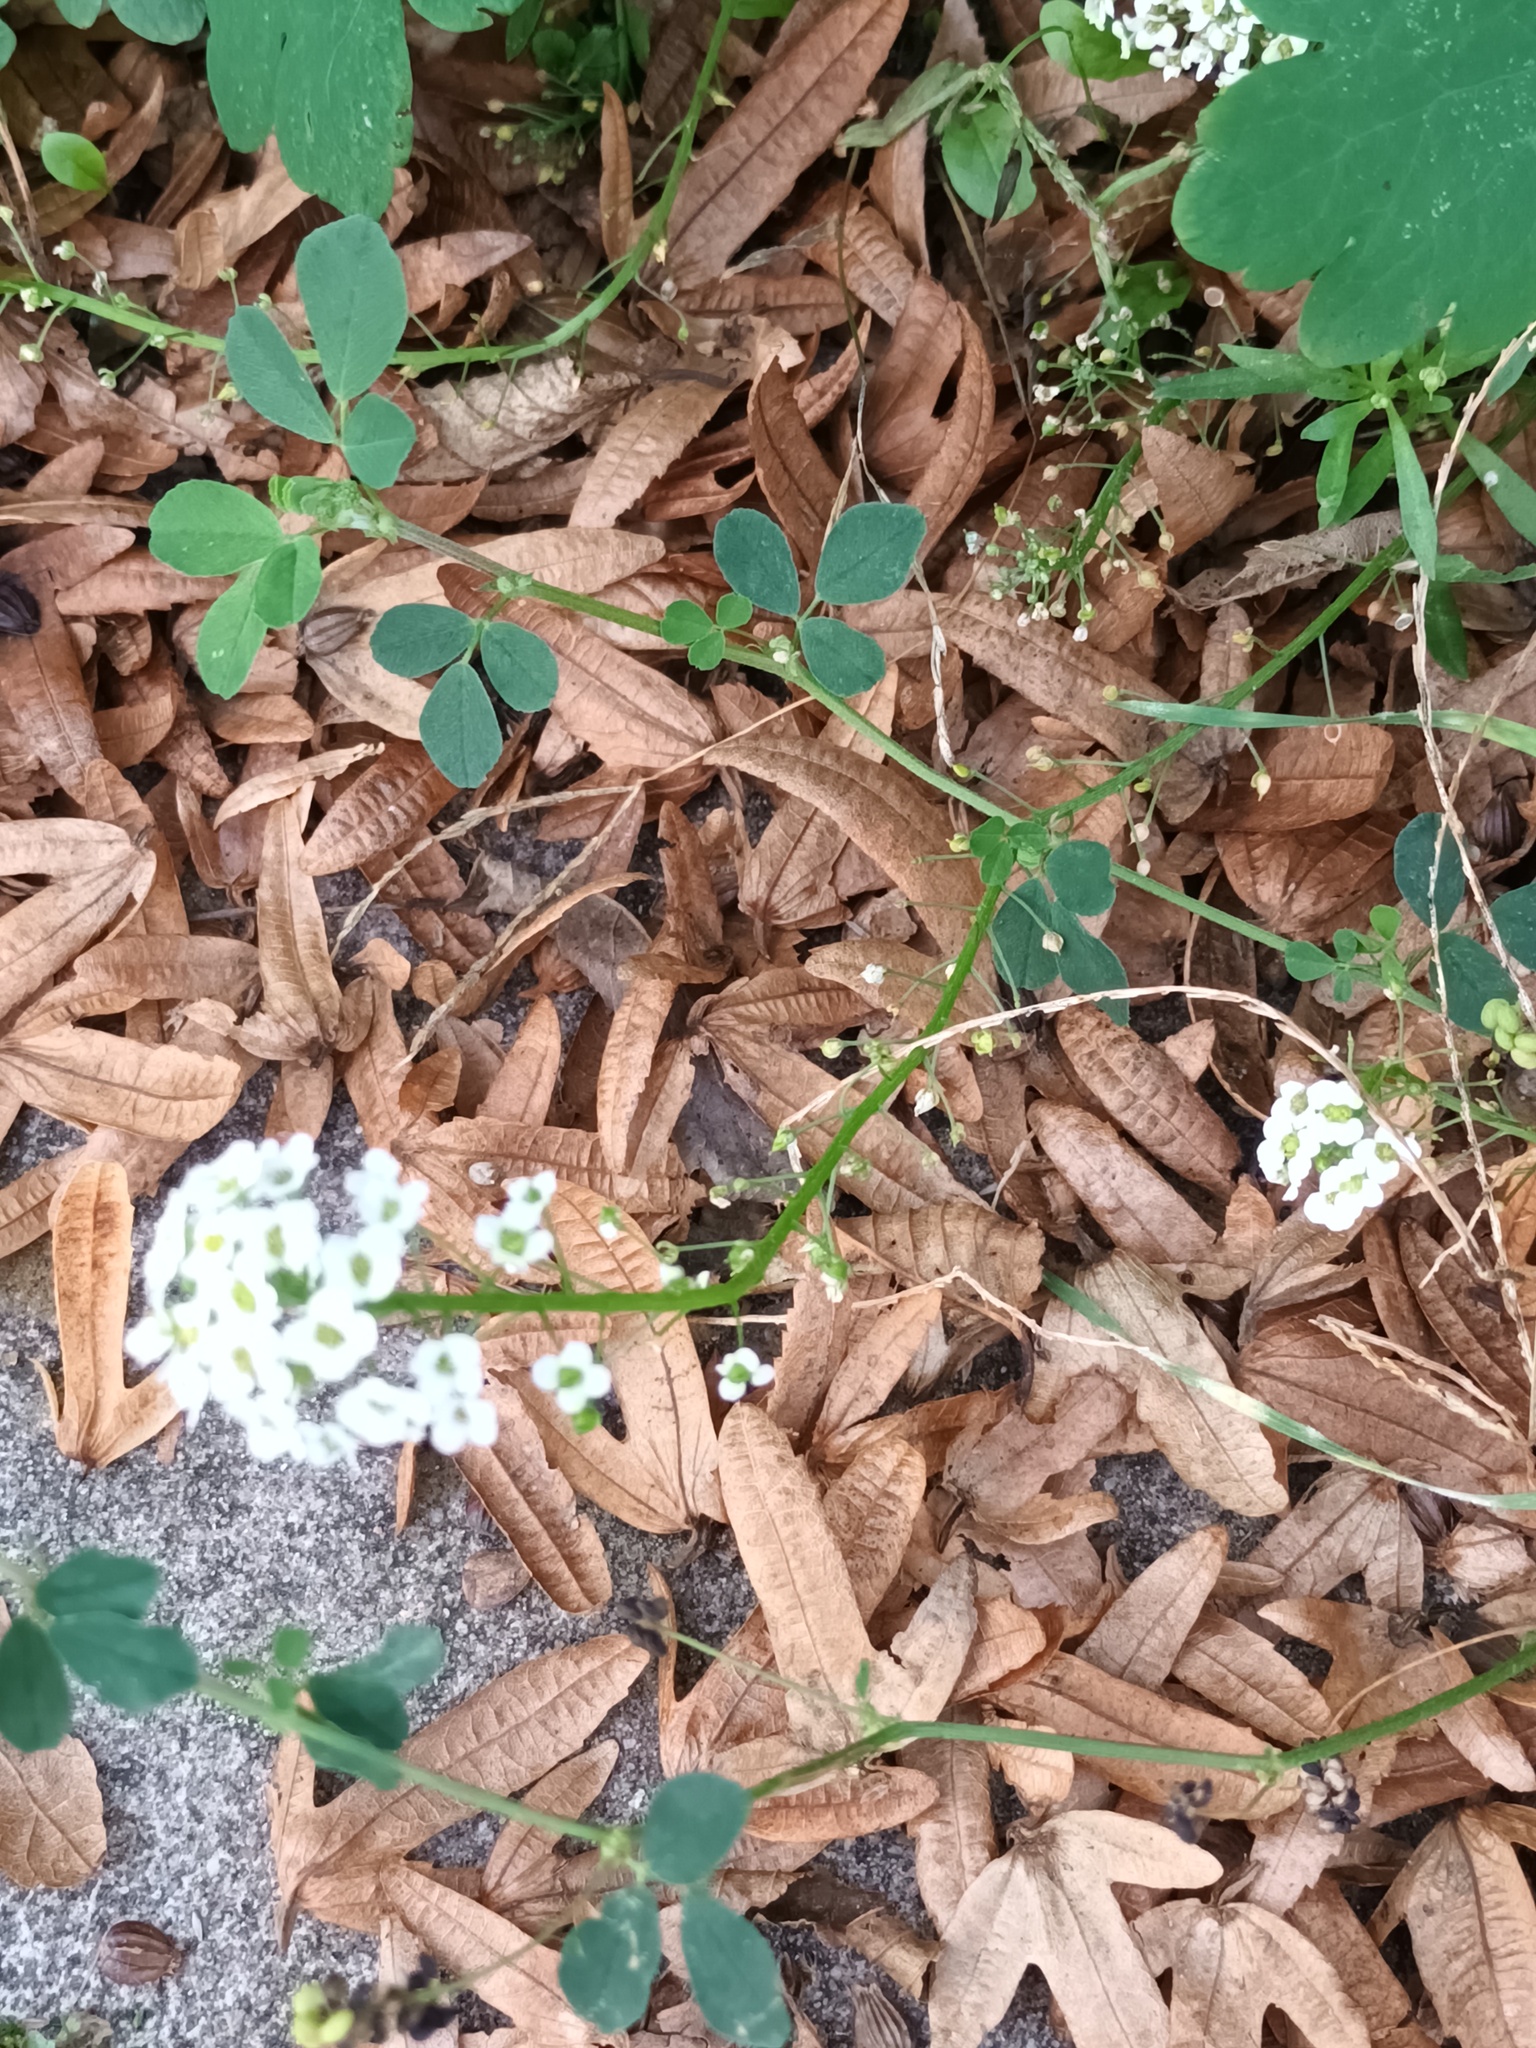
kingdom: Plantae
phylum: Tracheophyta
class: Magnoliopsida
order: Brassicales
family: Brassicaceae
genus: Lobularia
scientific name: Lobularia maritima
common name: Sweet alison
